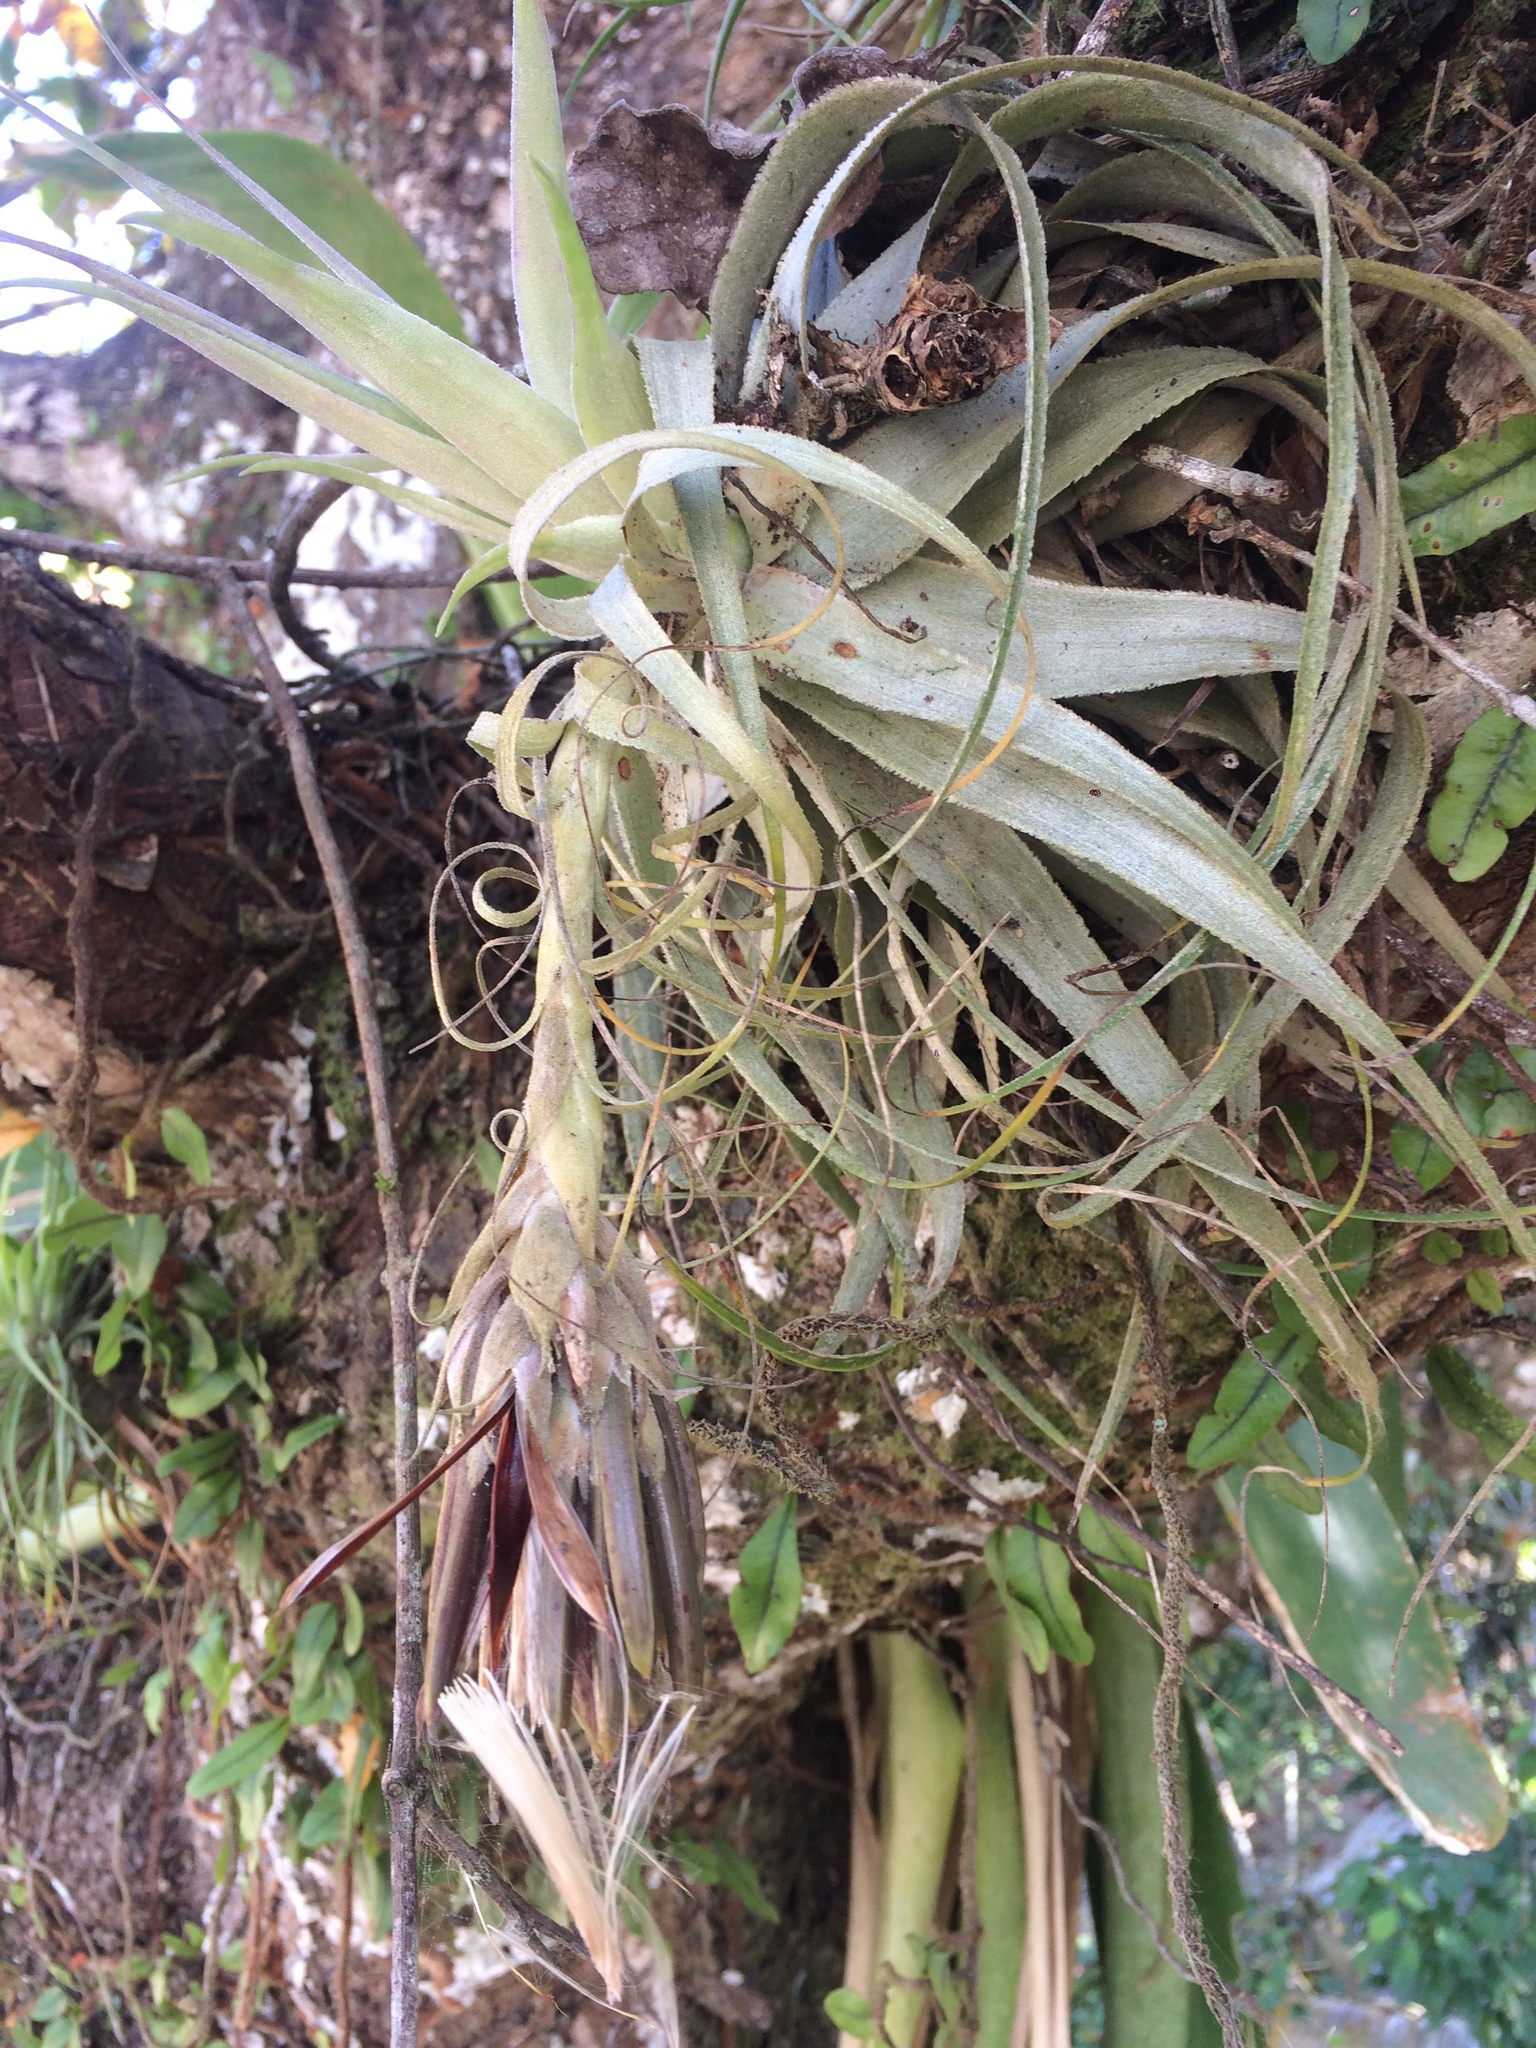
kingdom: Plantae
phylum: Tracheophyta
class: Liliopsida
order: Poales
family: Bromeliaceae
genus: Tillandsia
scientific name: Tillandsia gardneri
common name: Airplant
